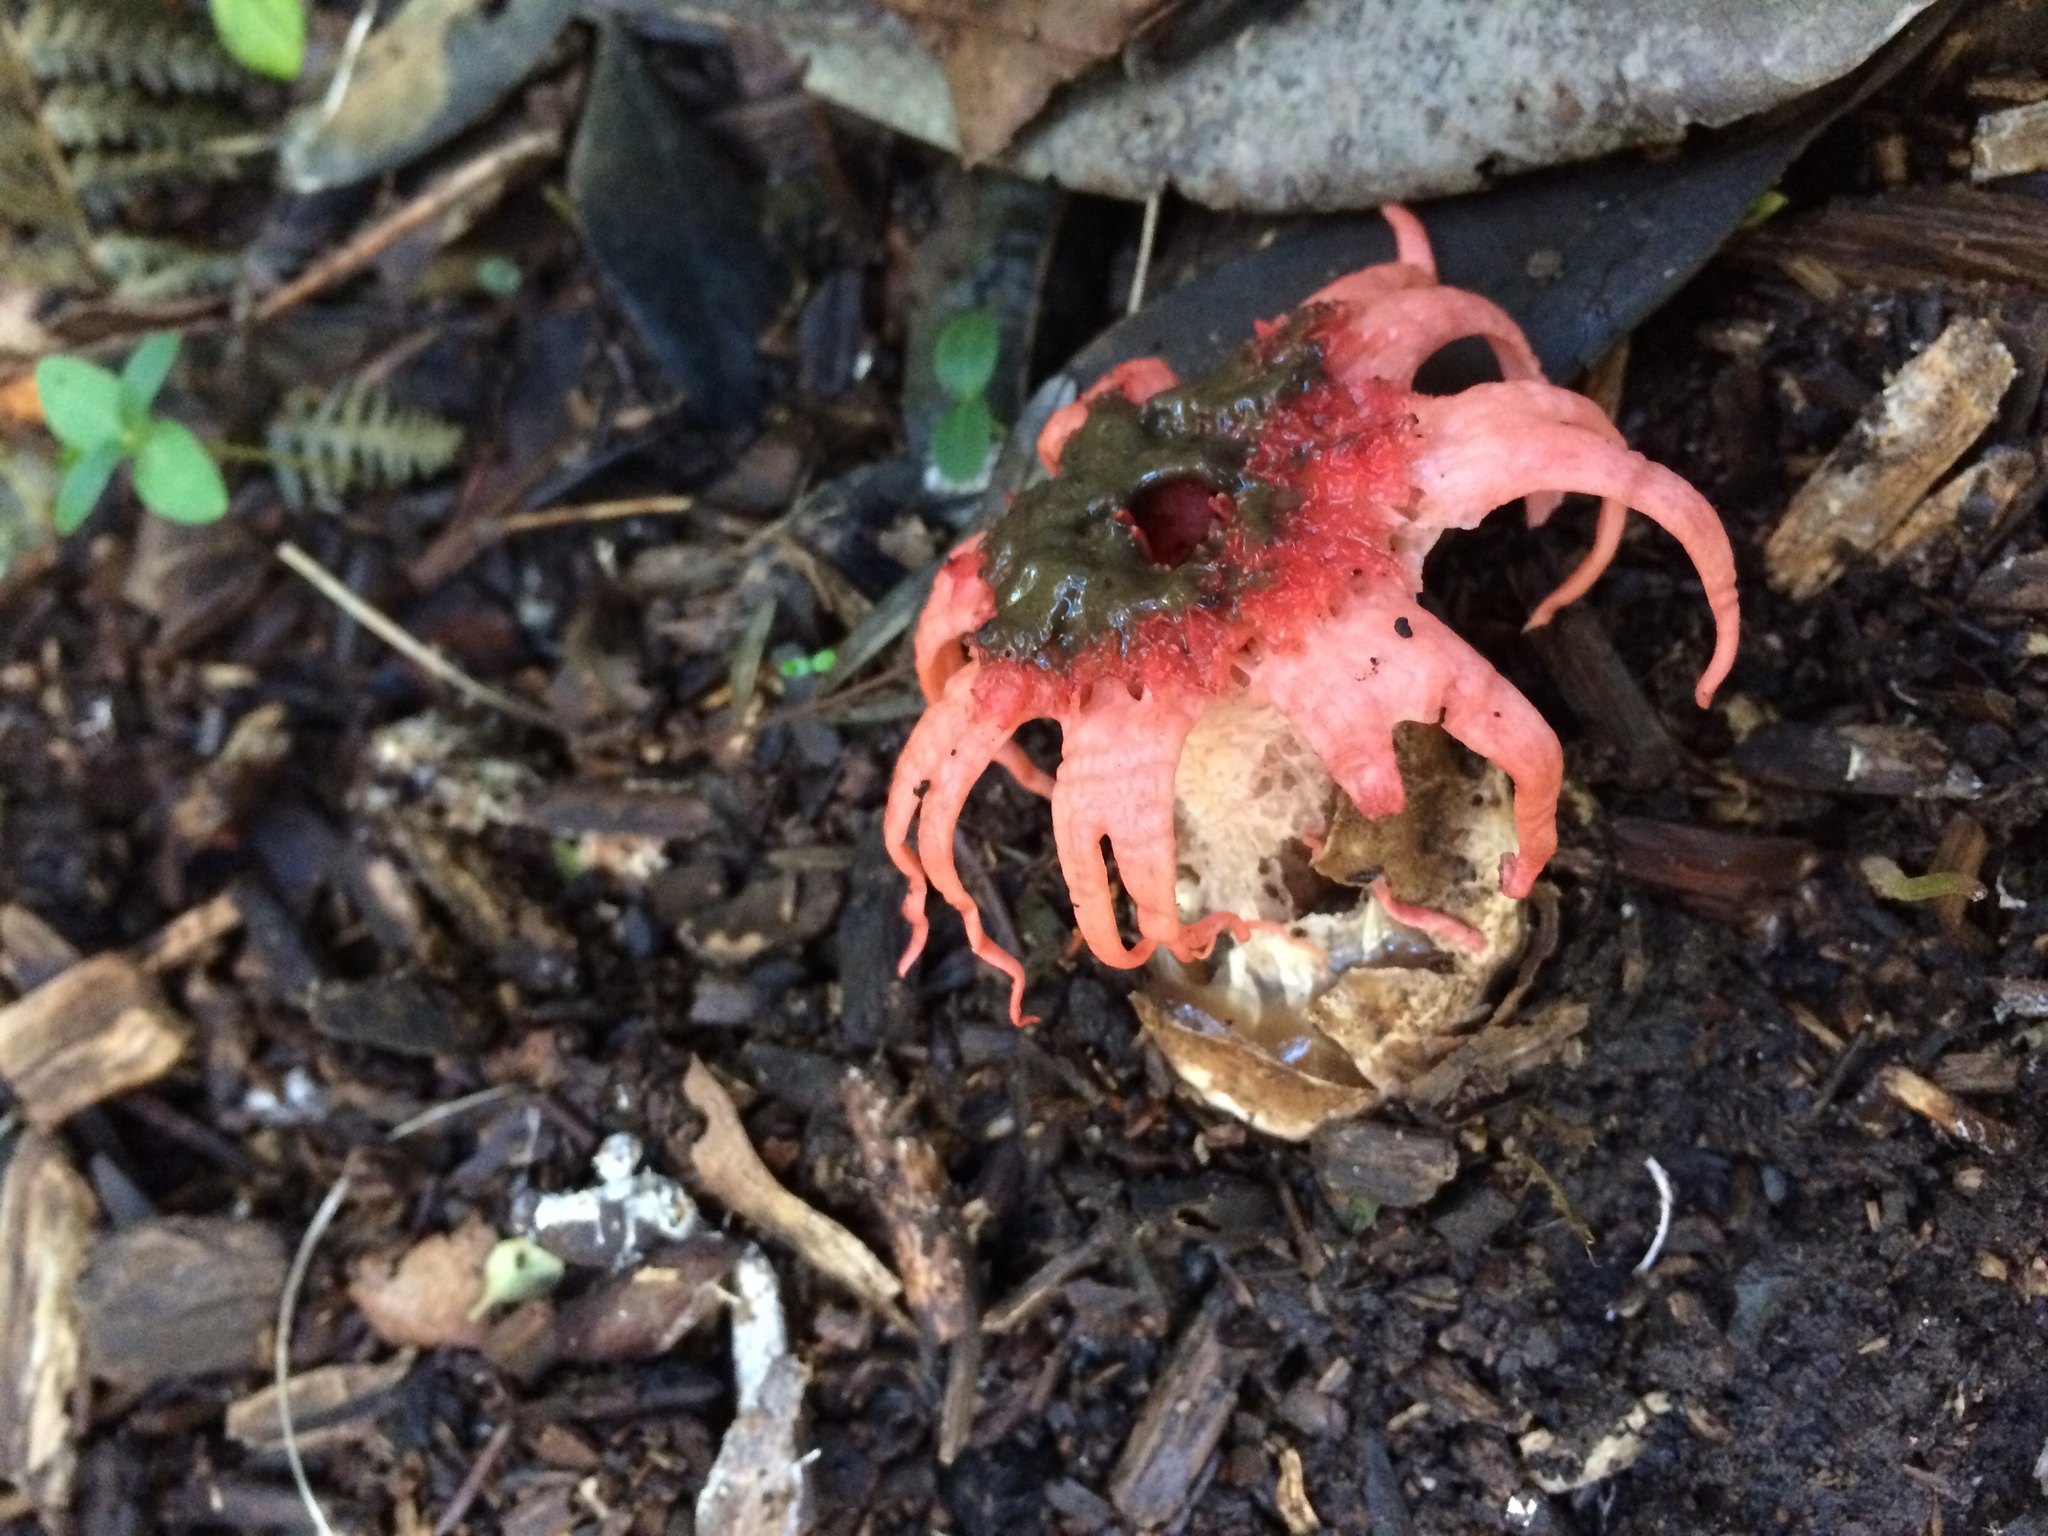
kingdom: Fungi
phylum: Basidiomycota
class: Agaricomycetes
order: Phallales
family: Phallaceae
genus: Aseroe
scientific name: Aseroe rubra
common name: Starfish fungus
